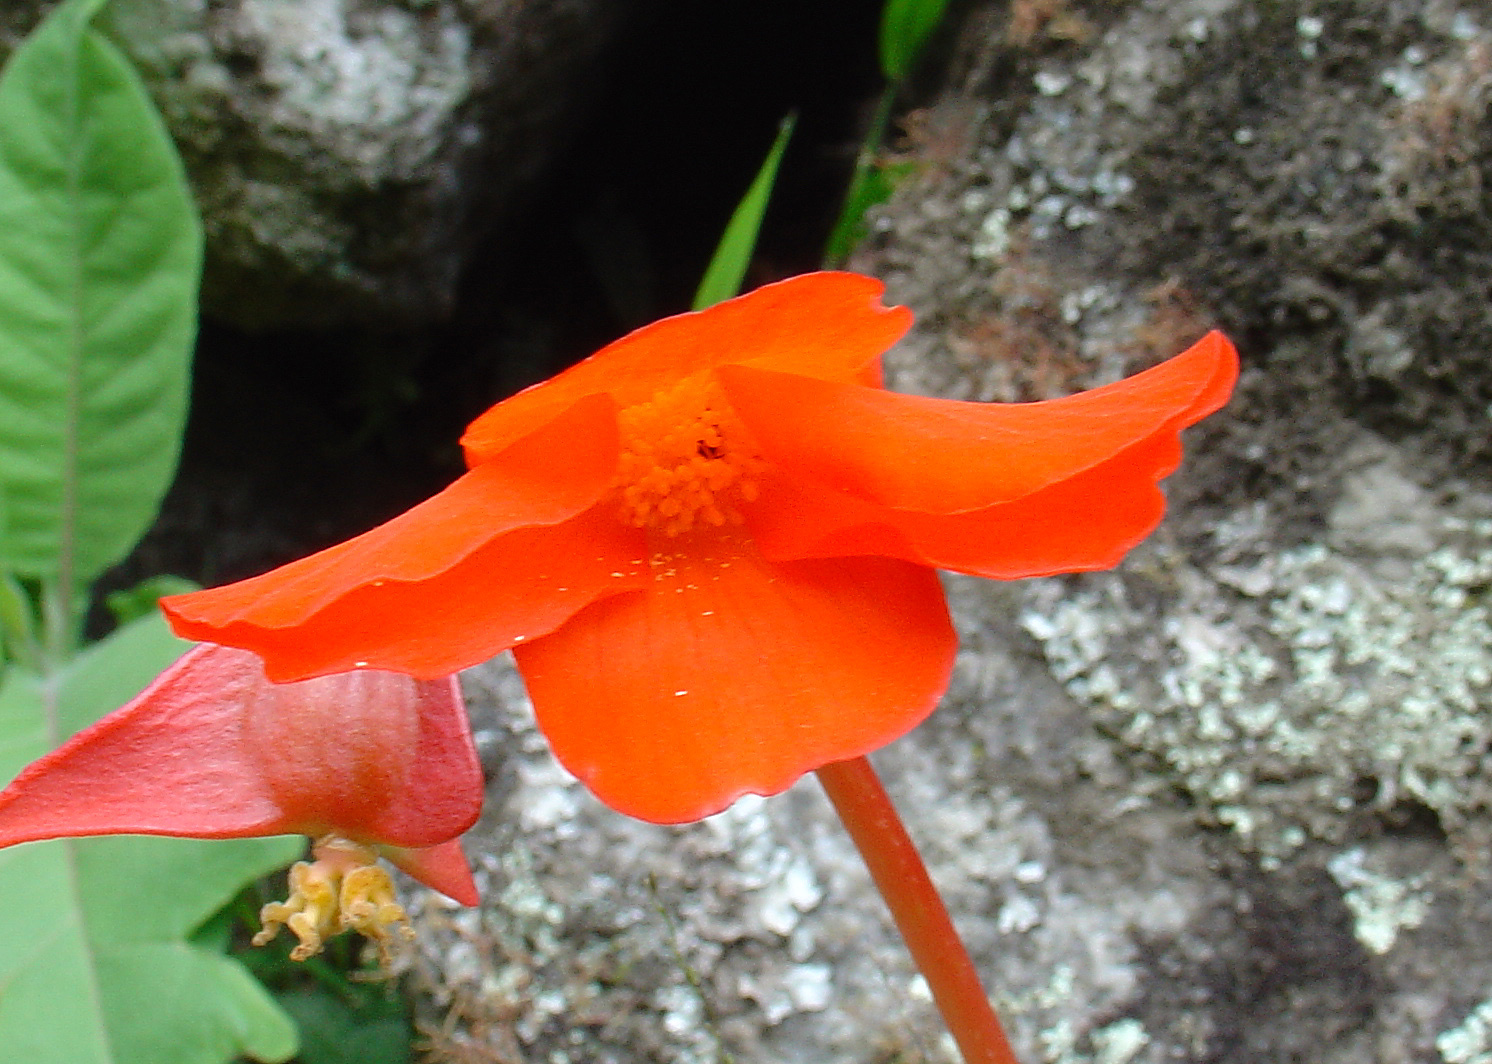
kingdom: Plantae
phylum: Tracheophyta
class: Magnoliopsida
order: Cucurbitales
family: Begoniaceae
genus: Begonia
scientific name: Begonia veitchii
